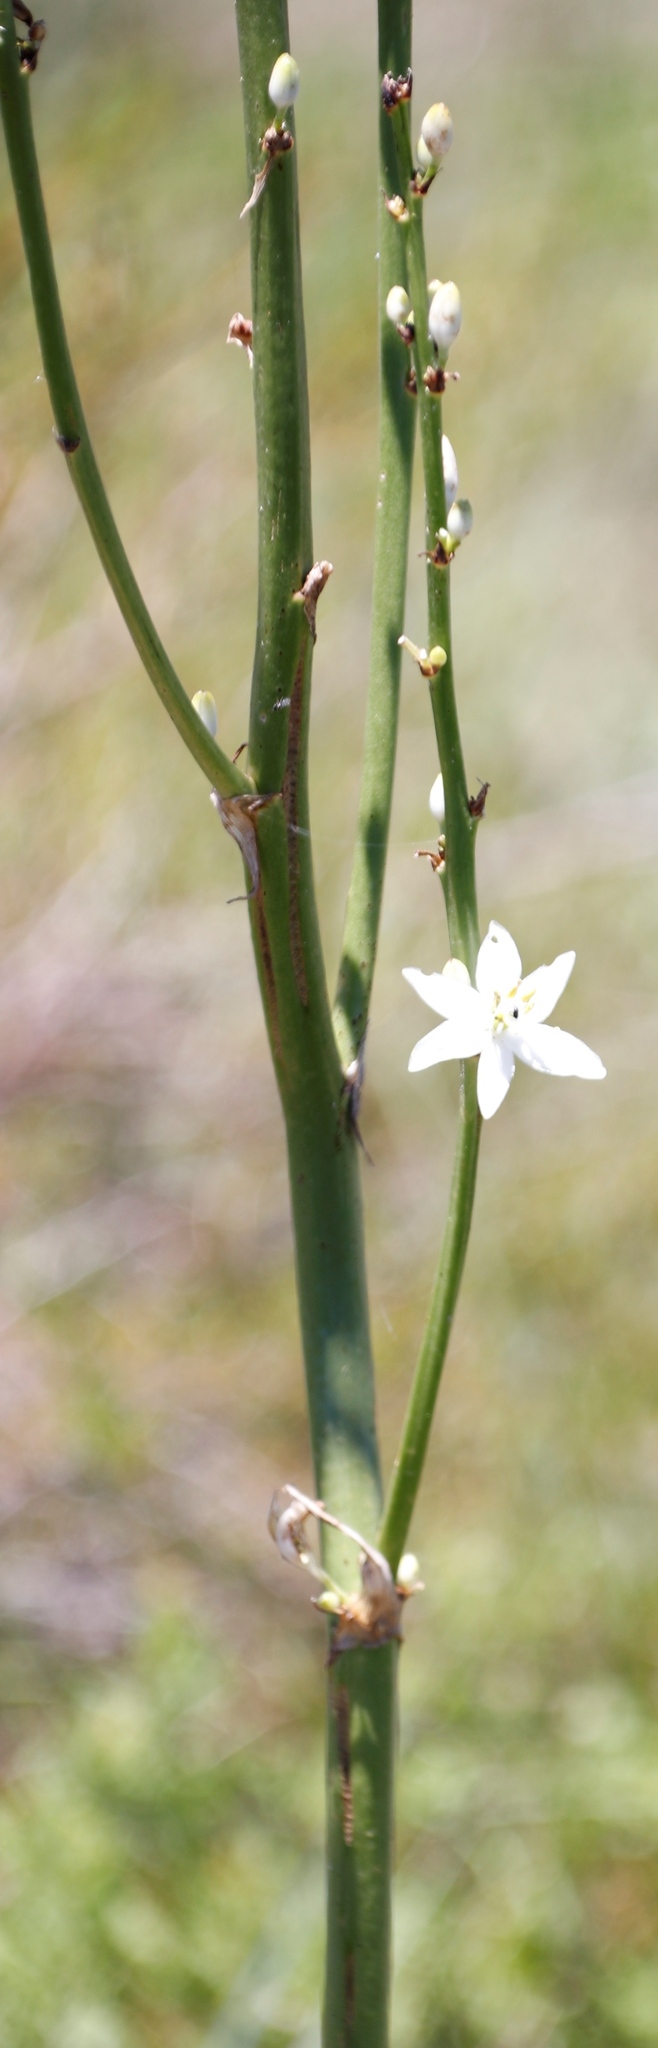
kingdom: Plantae
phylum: Tracheophyta
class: Liliopsida
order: Asparagales
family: Asparagaceae
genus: Chlorophytum
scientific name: Chlorophytum krookianum
